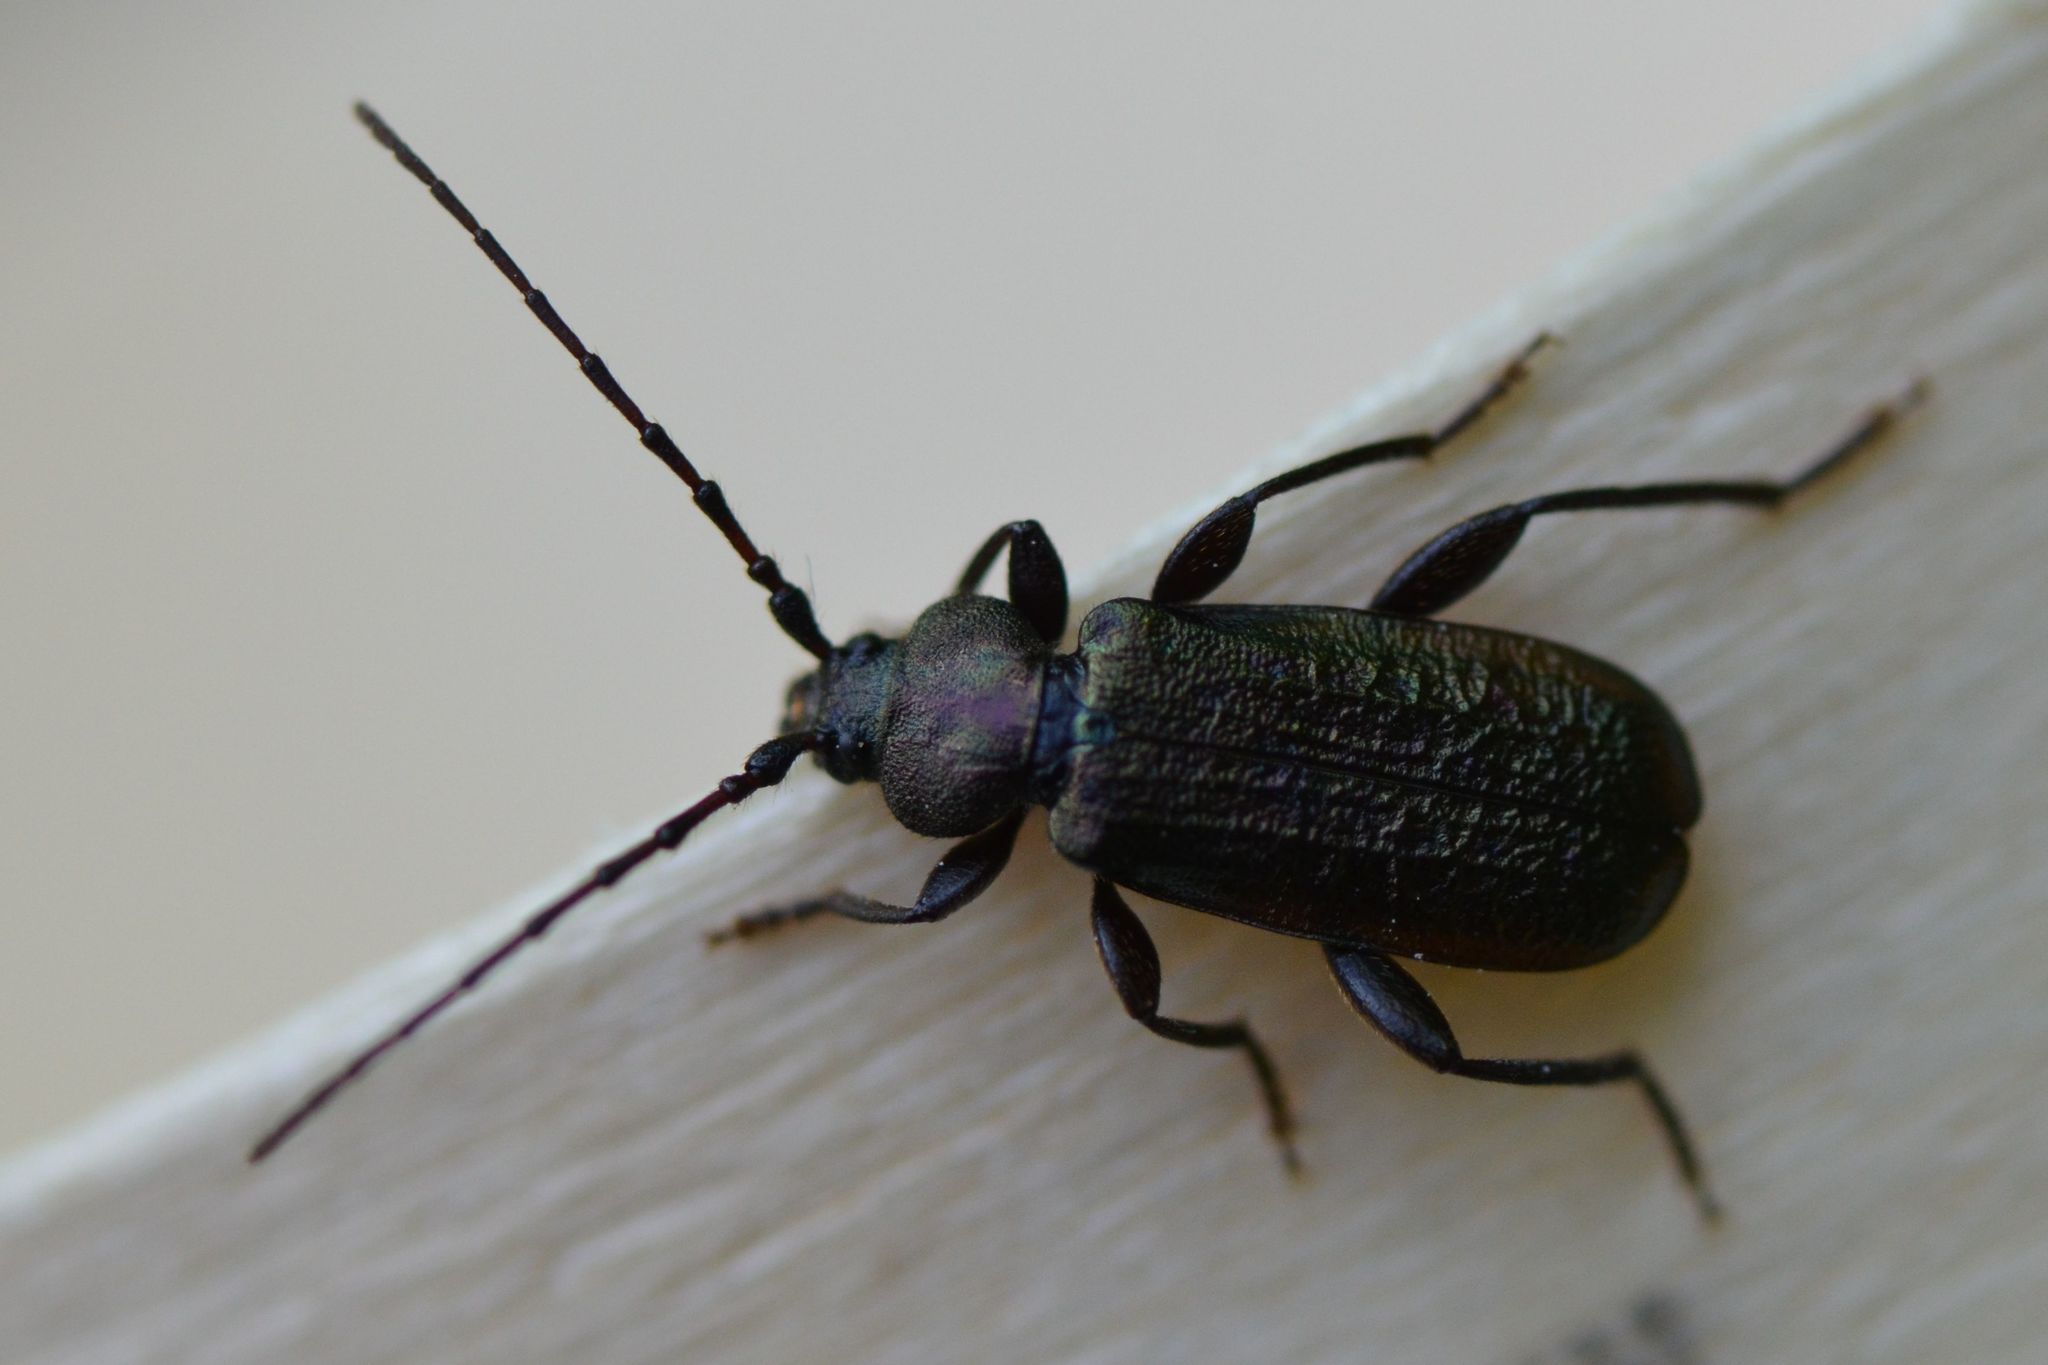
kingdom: Animalia
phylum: Arthropoda
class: Insecta
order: Coleoptera
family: Cerambycidae
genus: Callidium
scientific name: Callidium aeneum
